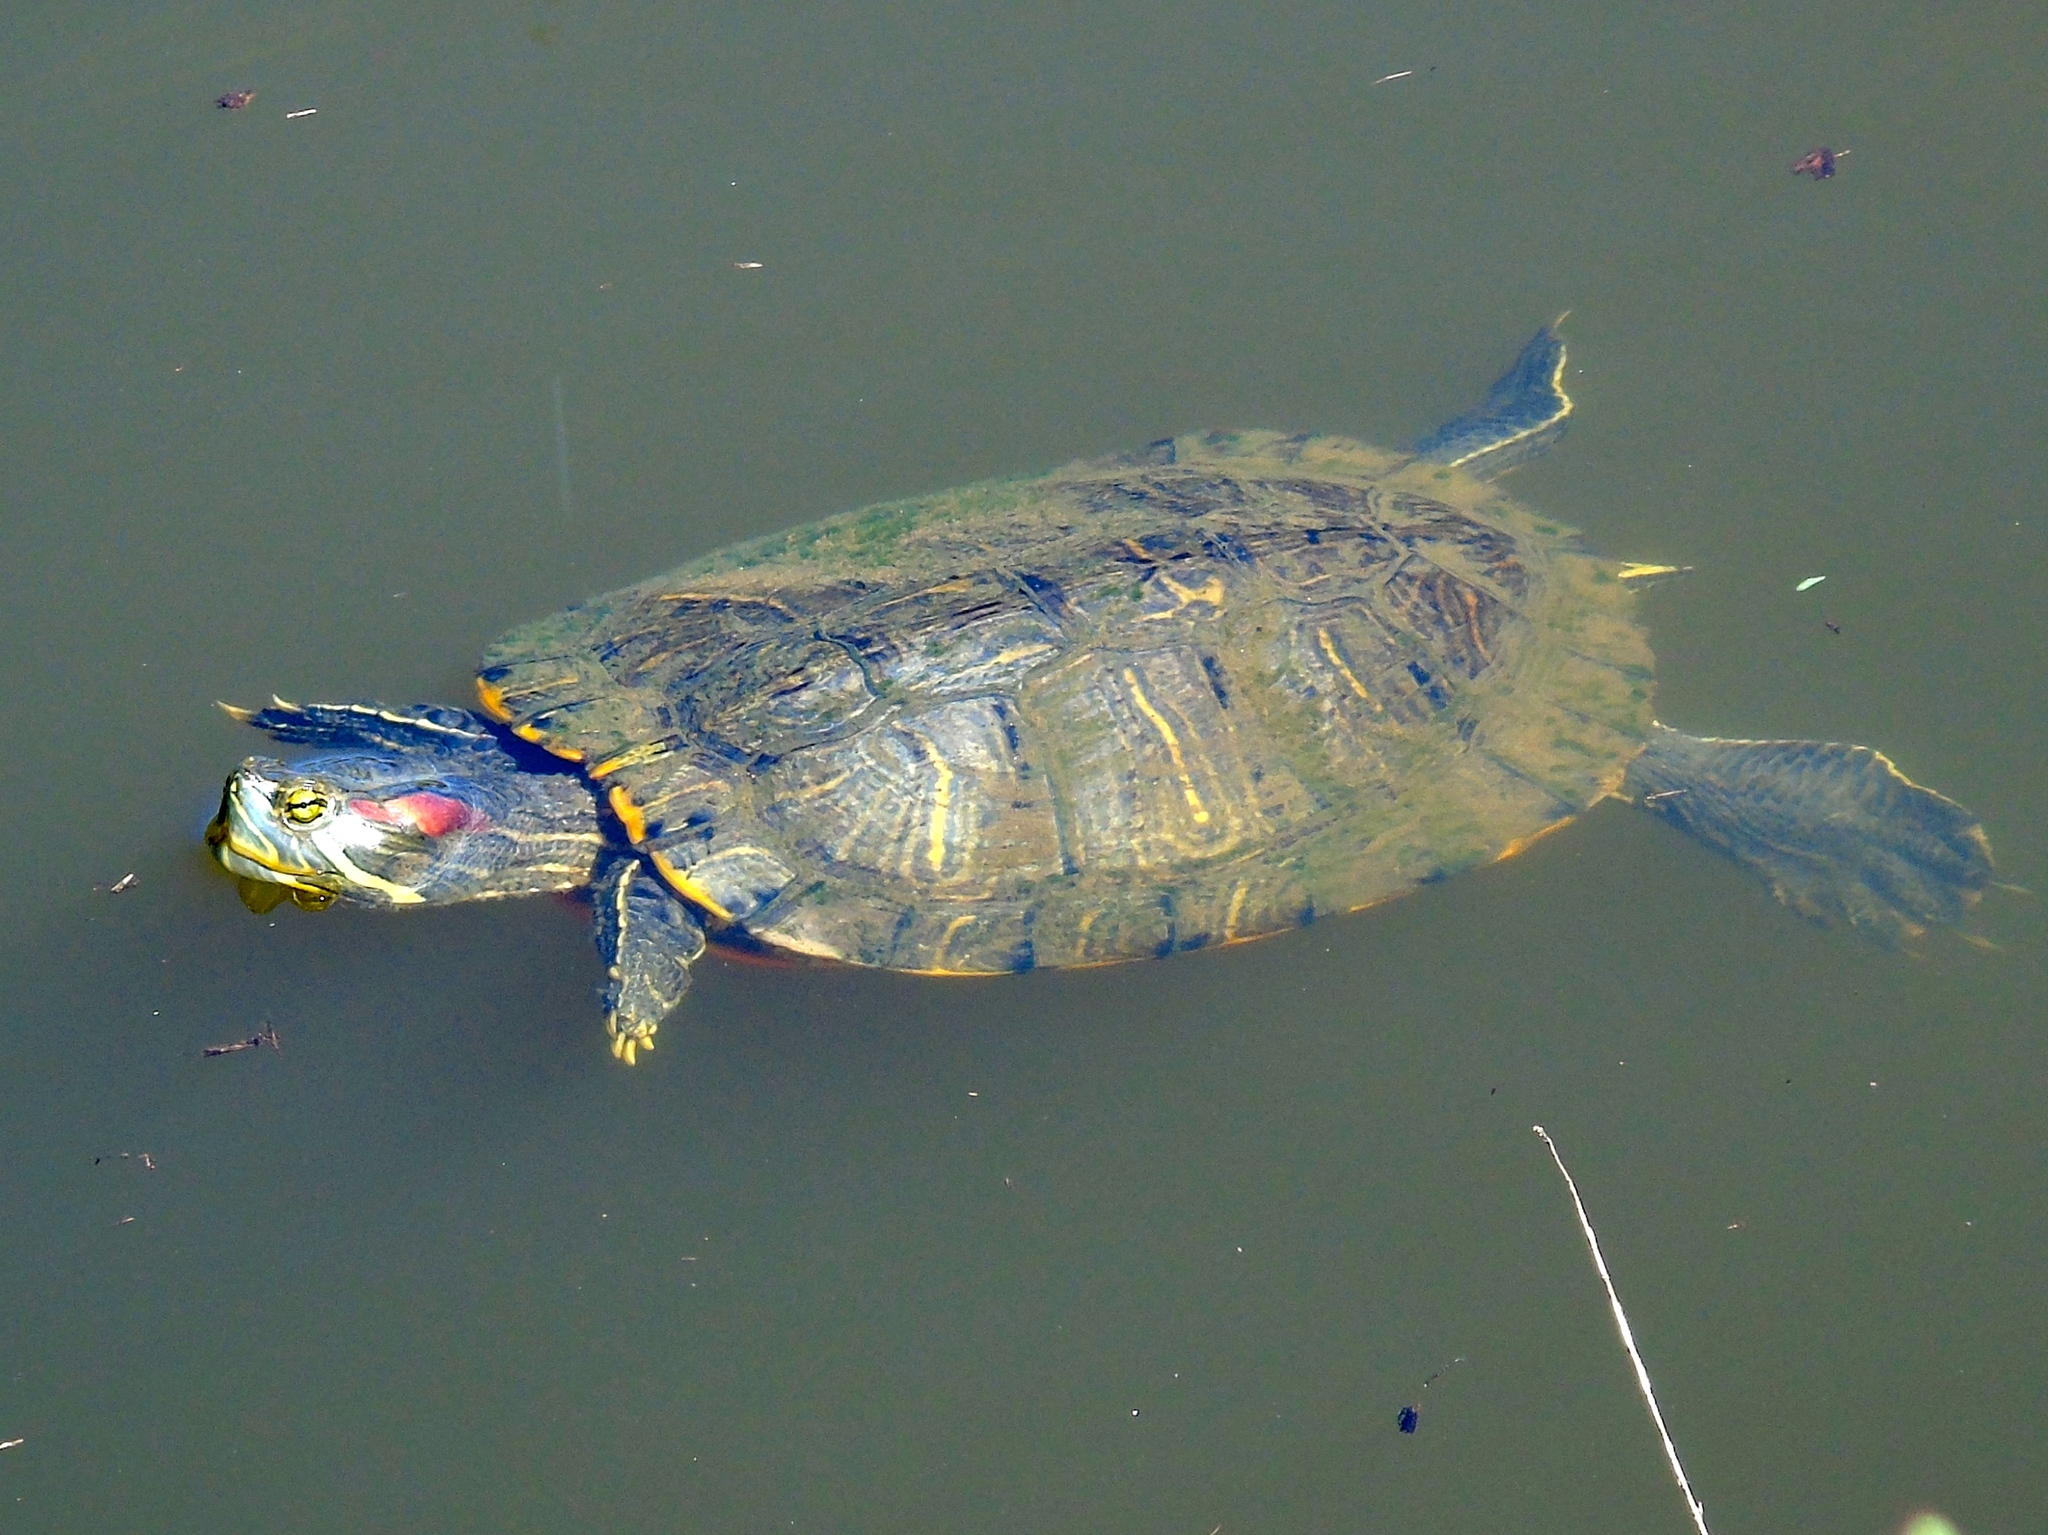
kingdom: Animalia
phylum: Chordata
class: Testudines
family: Emydidae
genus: Trachemys
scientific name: Trachemys scripta
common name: Slider
